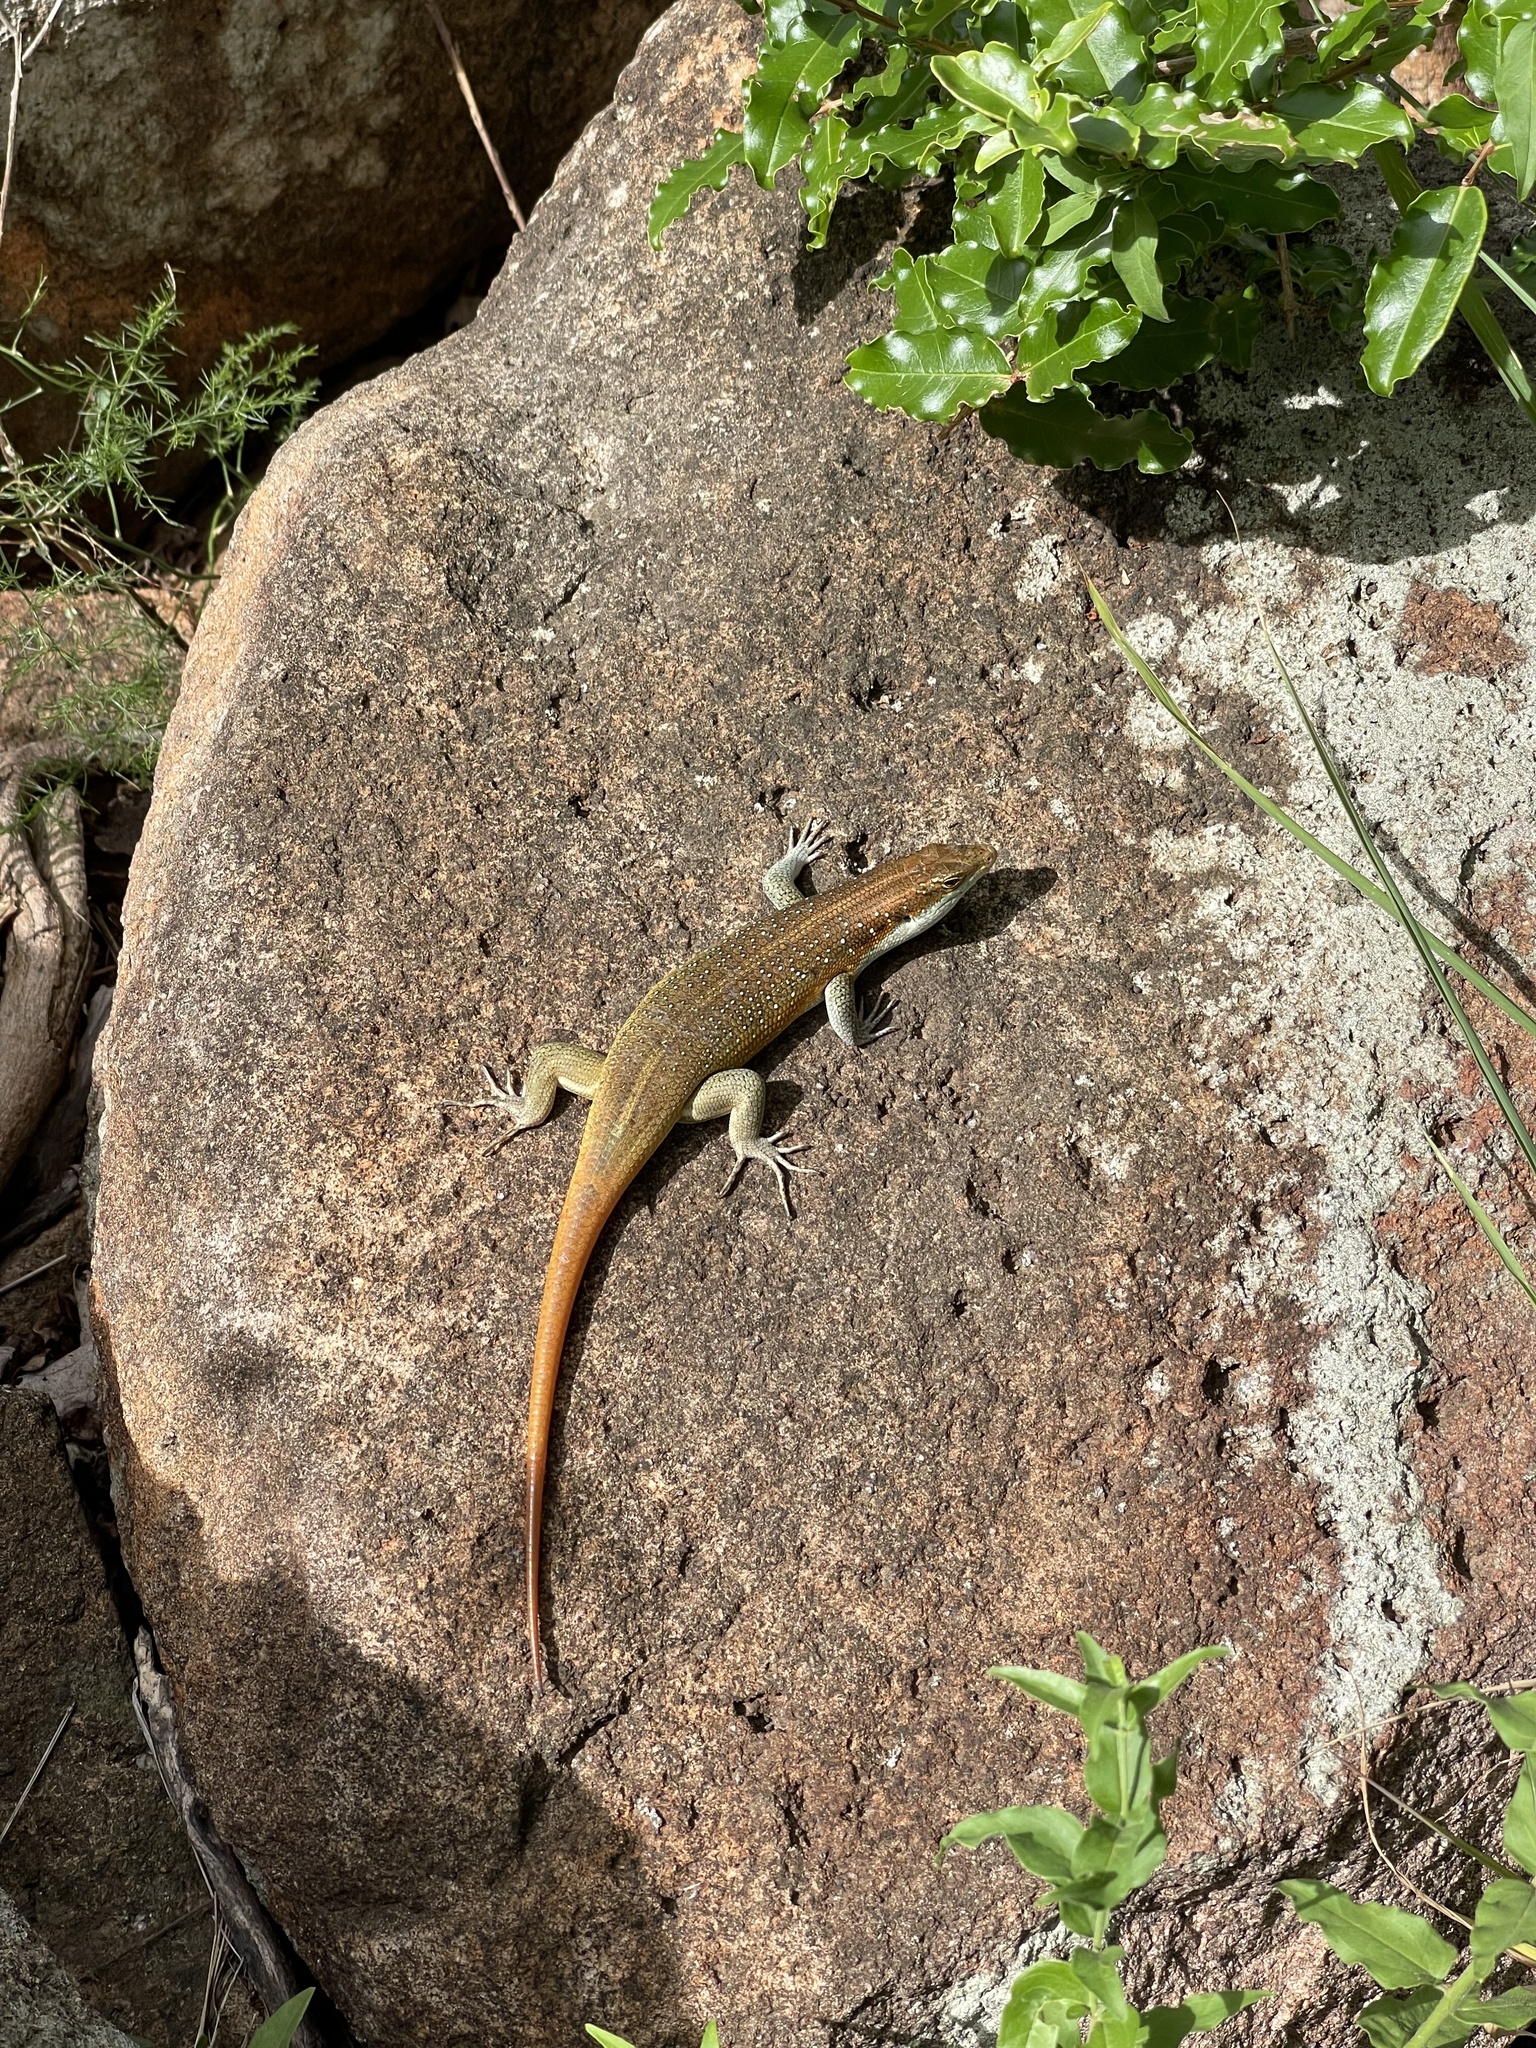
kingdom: Animalia
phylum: Chordata
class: Squamata
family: Scincidae
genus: Trachylepis
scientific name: Trachylepis margaritifera
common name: Rainbow skink
